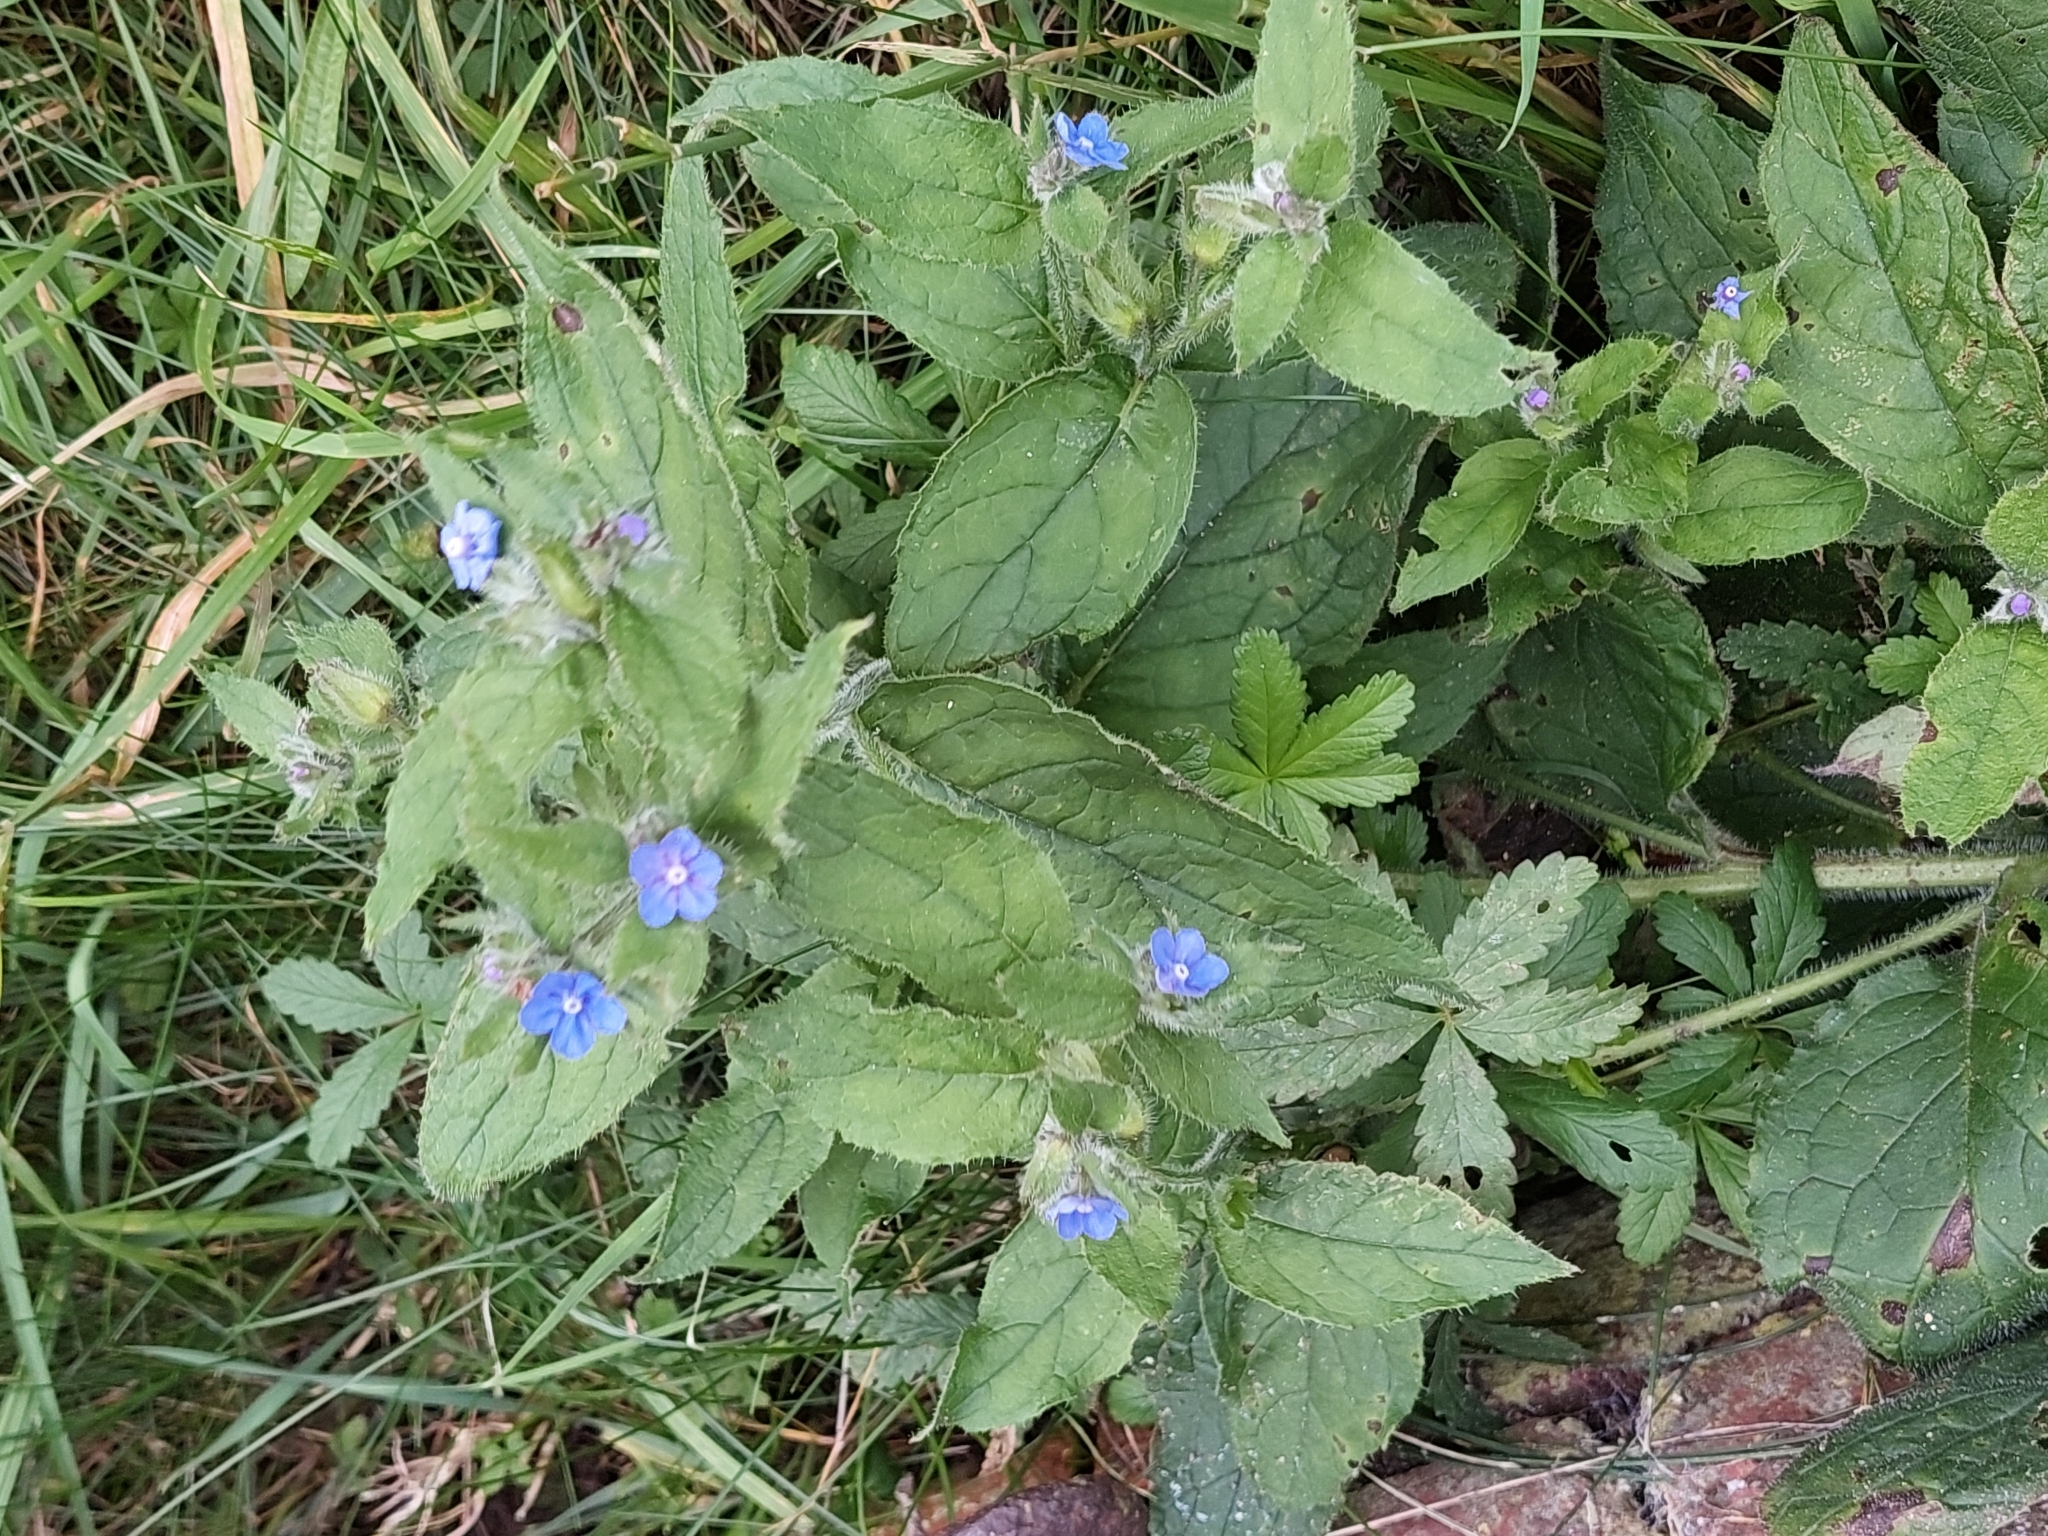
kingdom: Plantae
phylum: Tracheophyta
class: Magnoliopsida
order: Boraginales
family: Boraginaceae
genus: Pentaglottis
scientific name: Pentaglottis sempervirens
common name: Green alkanet
